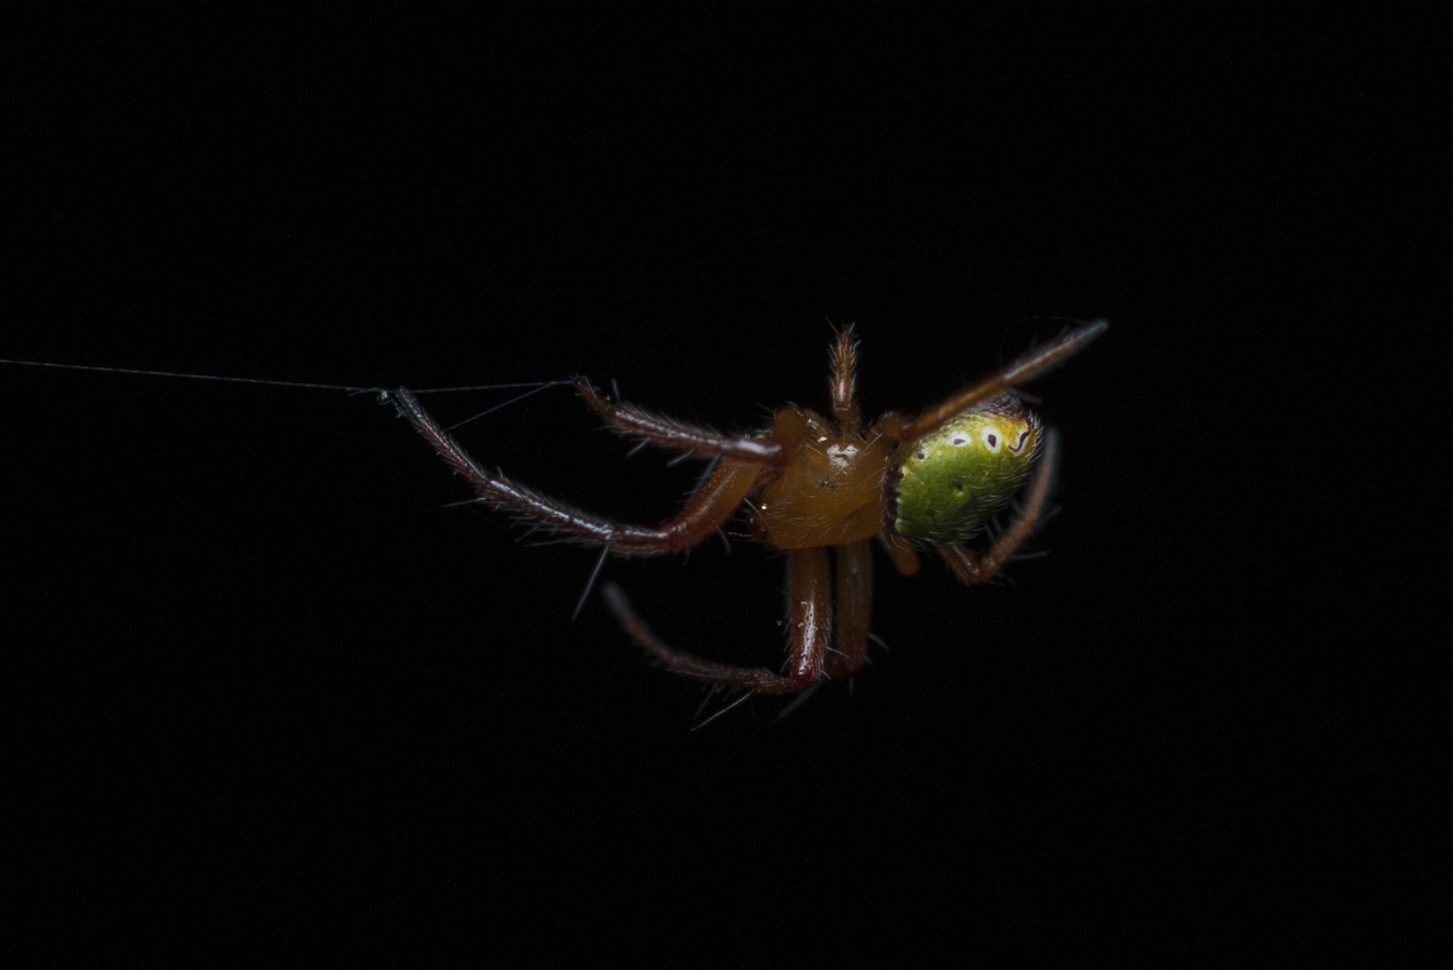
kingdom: Animalia
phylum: Arthropoda
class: Arachnida
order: Araneae
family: Araneidae
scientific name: Araneidae
